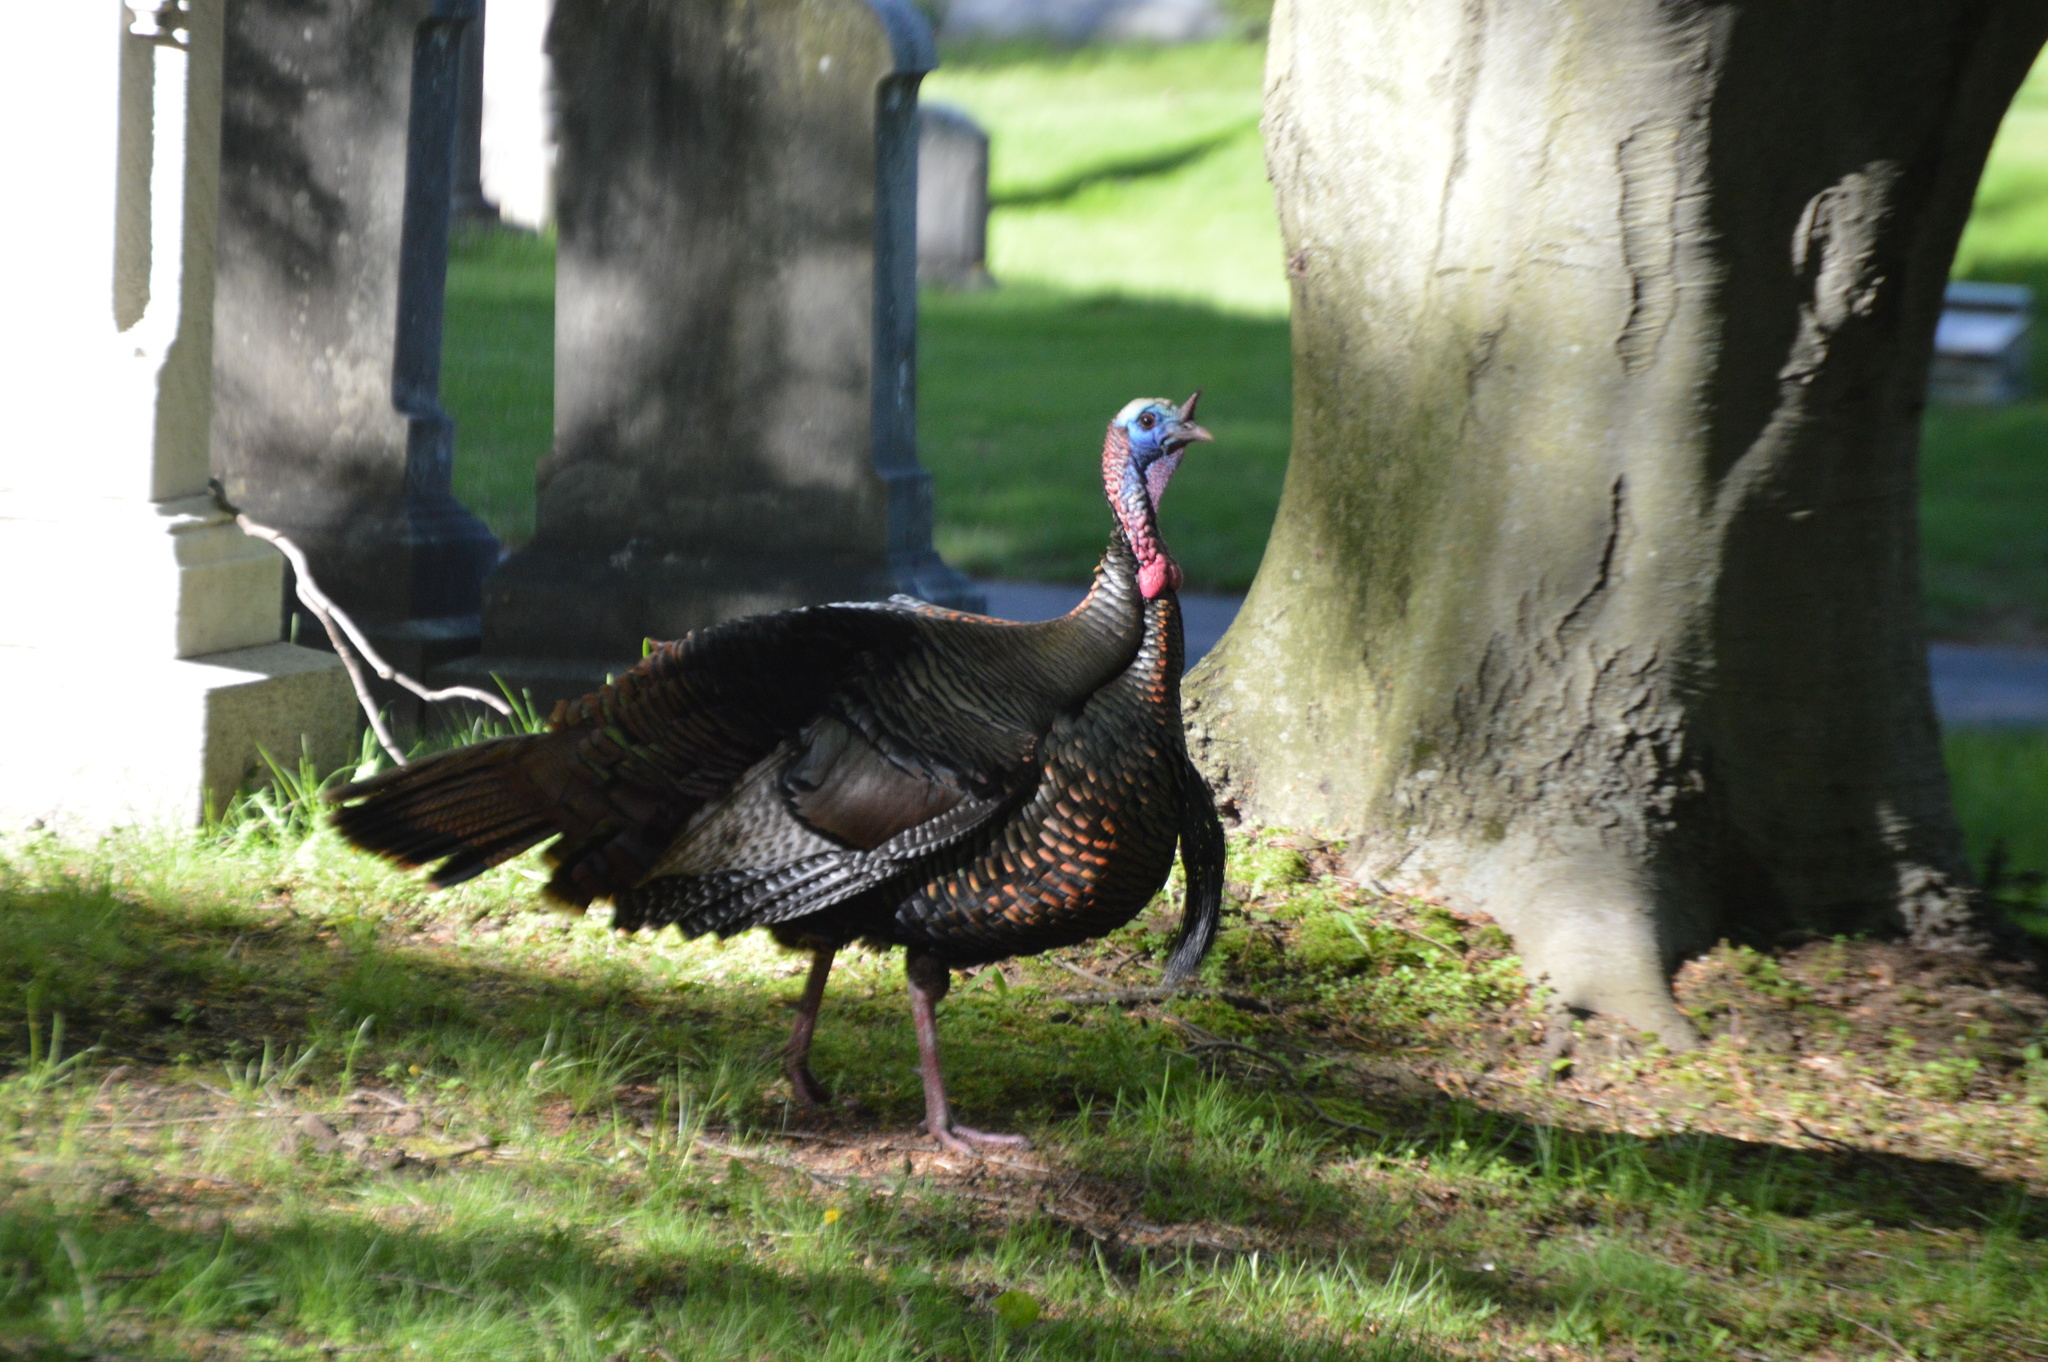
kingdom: Animalia
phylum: Chordata
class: Aves
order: Galliformes
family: Phasianidae
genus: Meleagris
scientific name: Meleagris gallopavo
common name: Wild turkey
